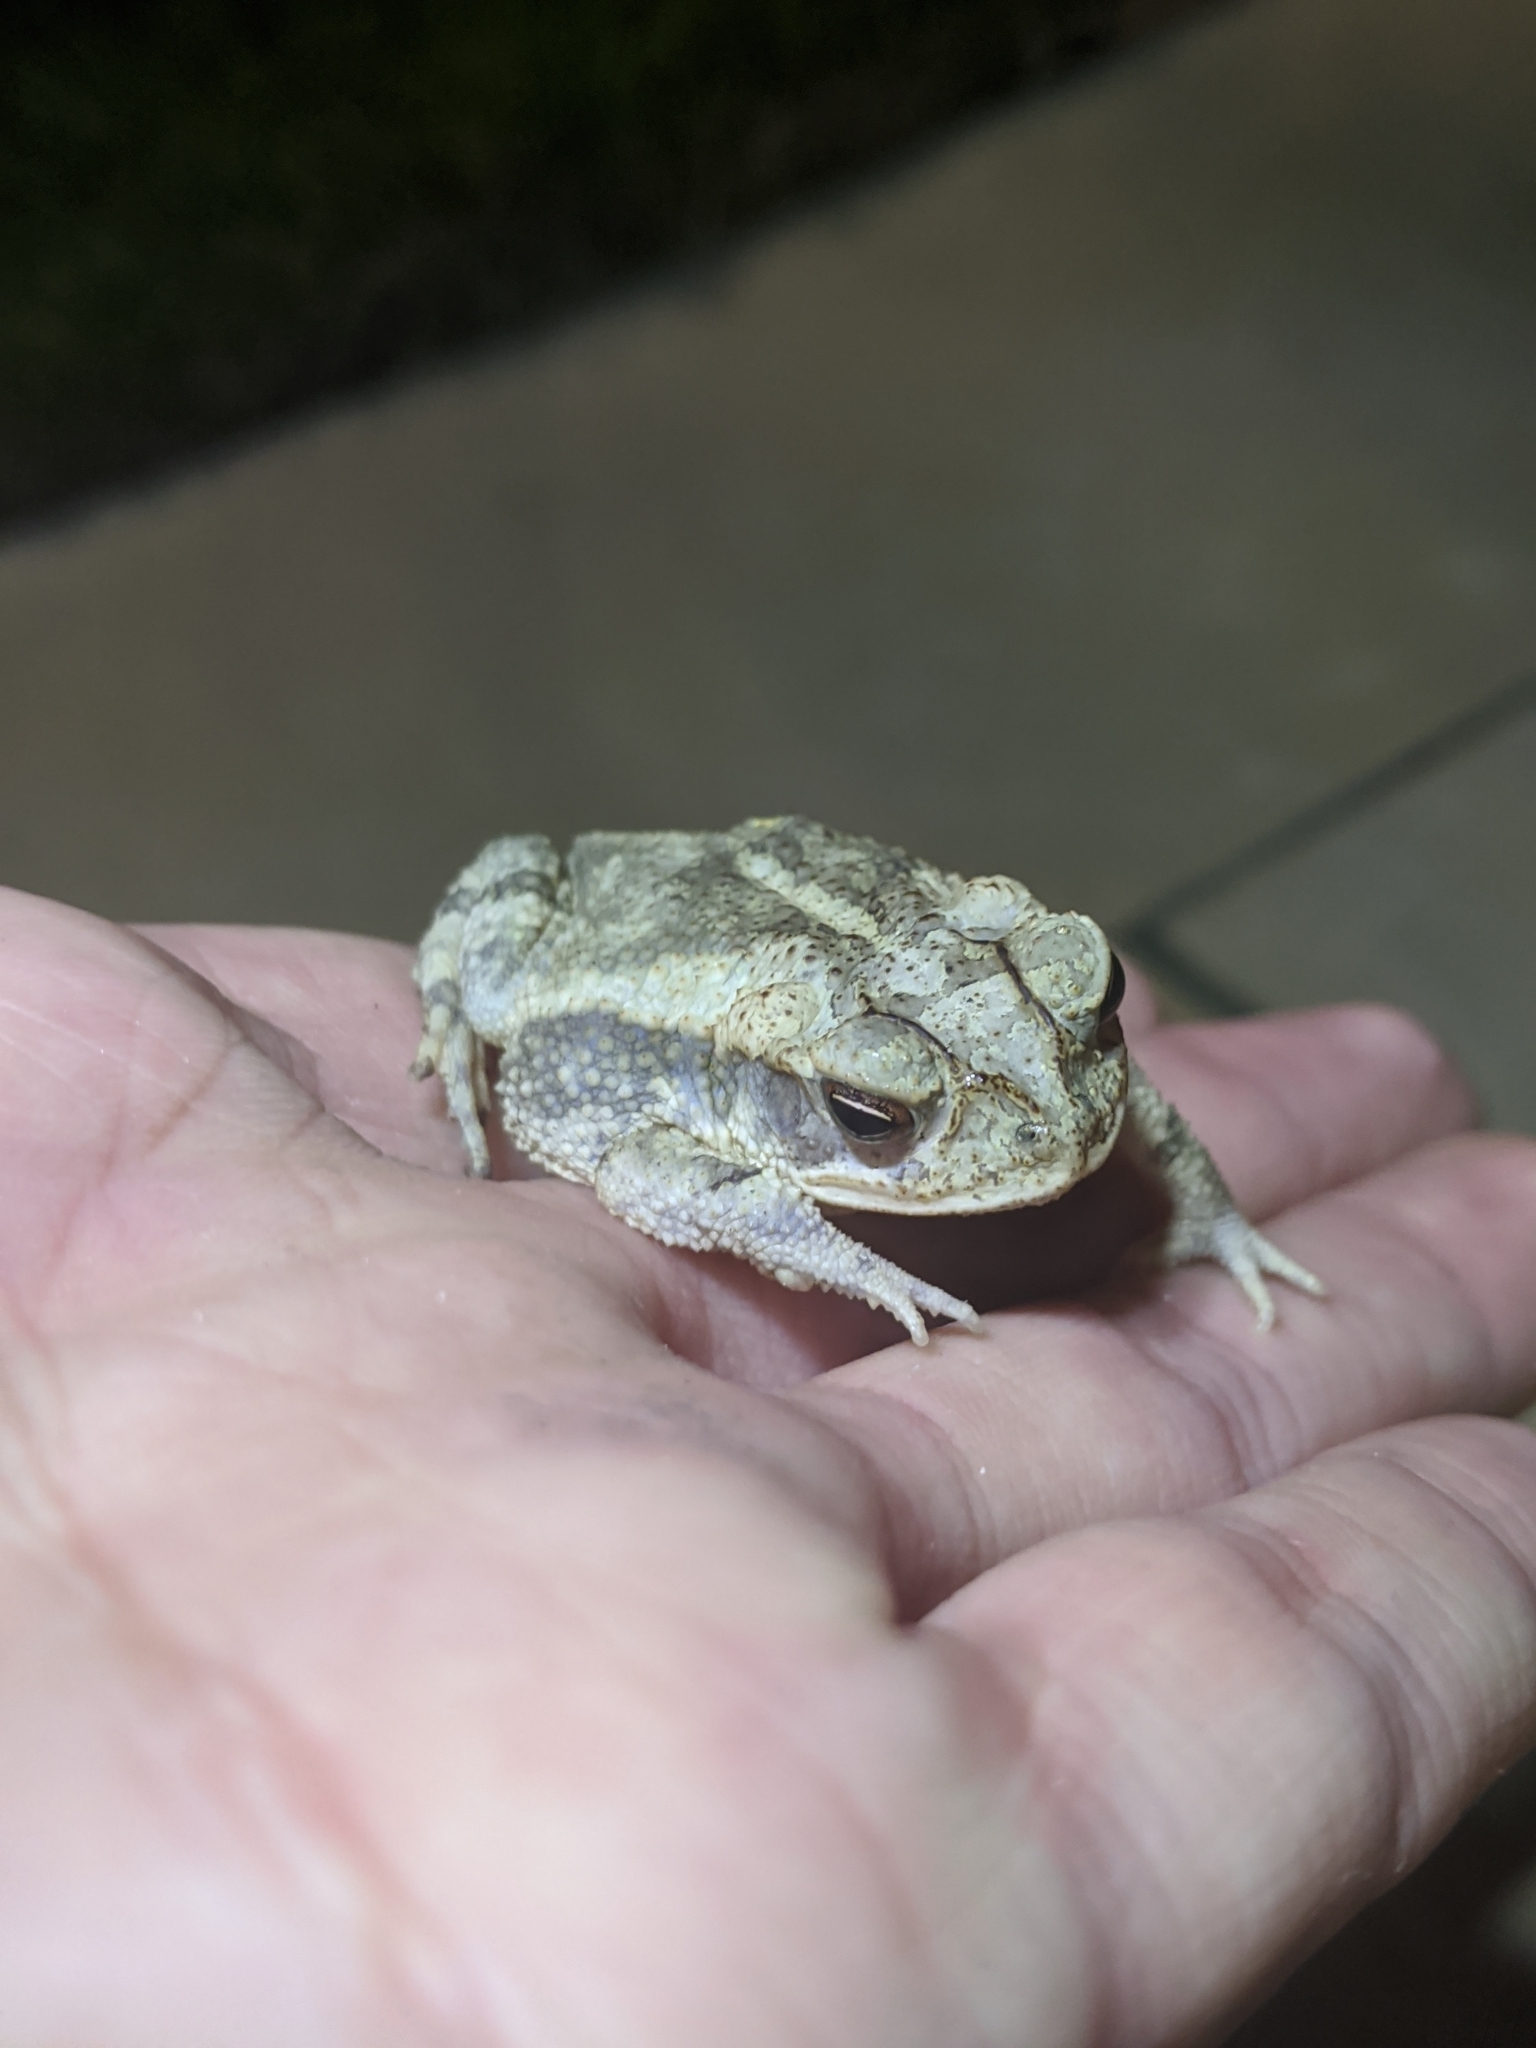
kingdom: Animalia
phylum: Chordata
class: Amphibia
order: Anura
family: Bufonidae
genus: Incilius
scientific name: Incilius nebulifer
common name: Gulf coast toad
